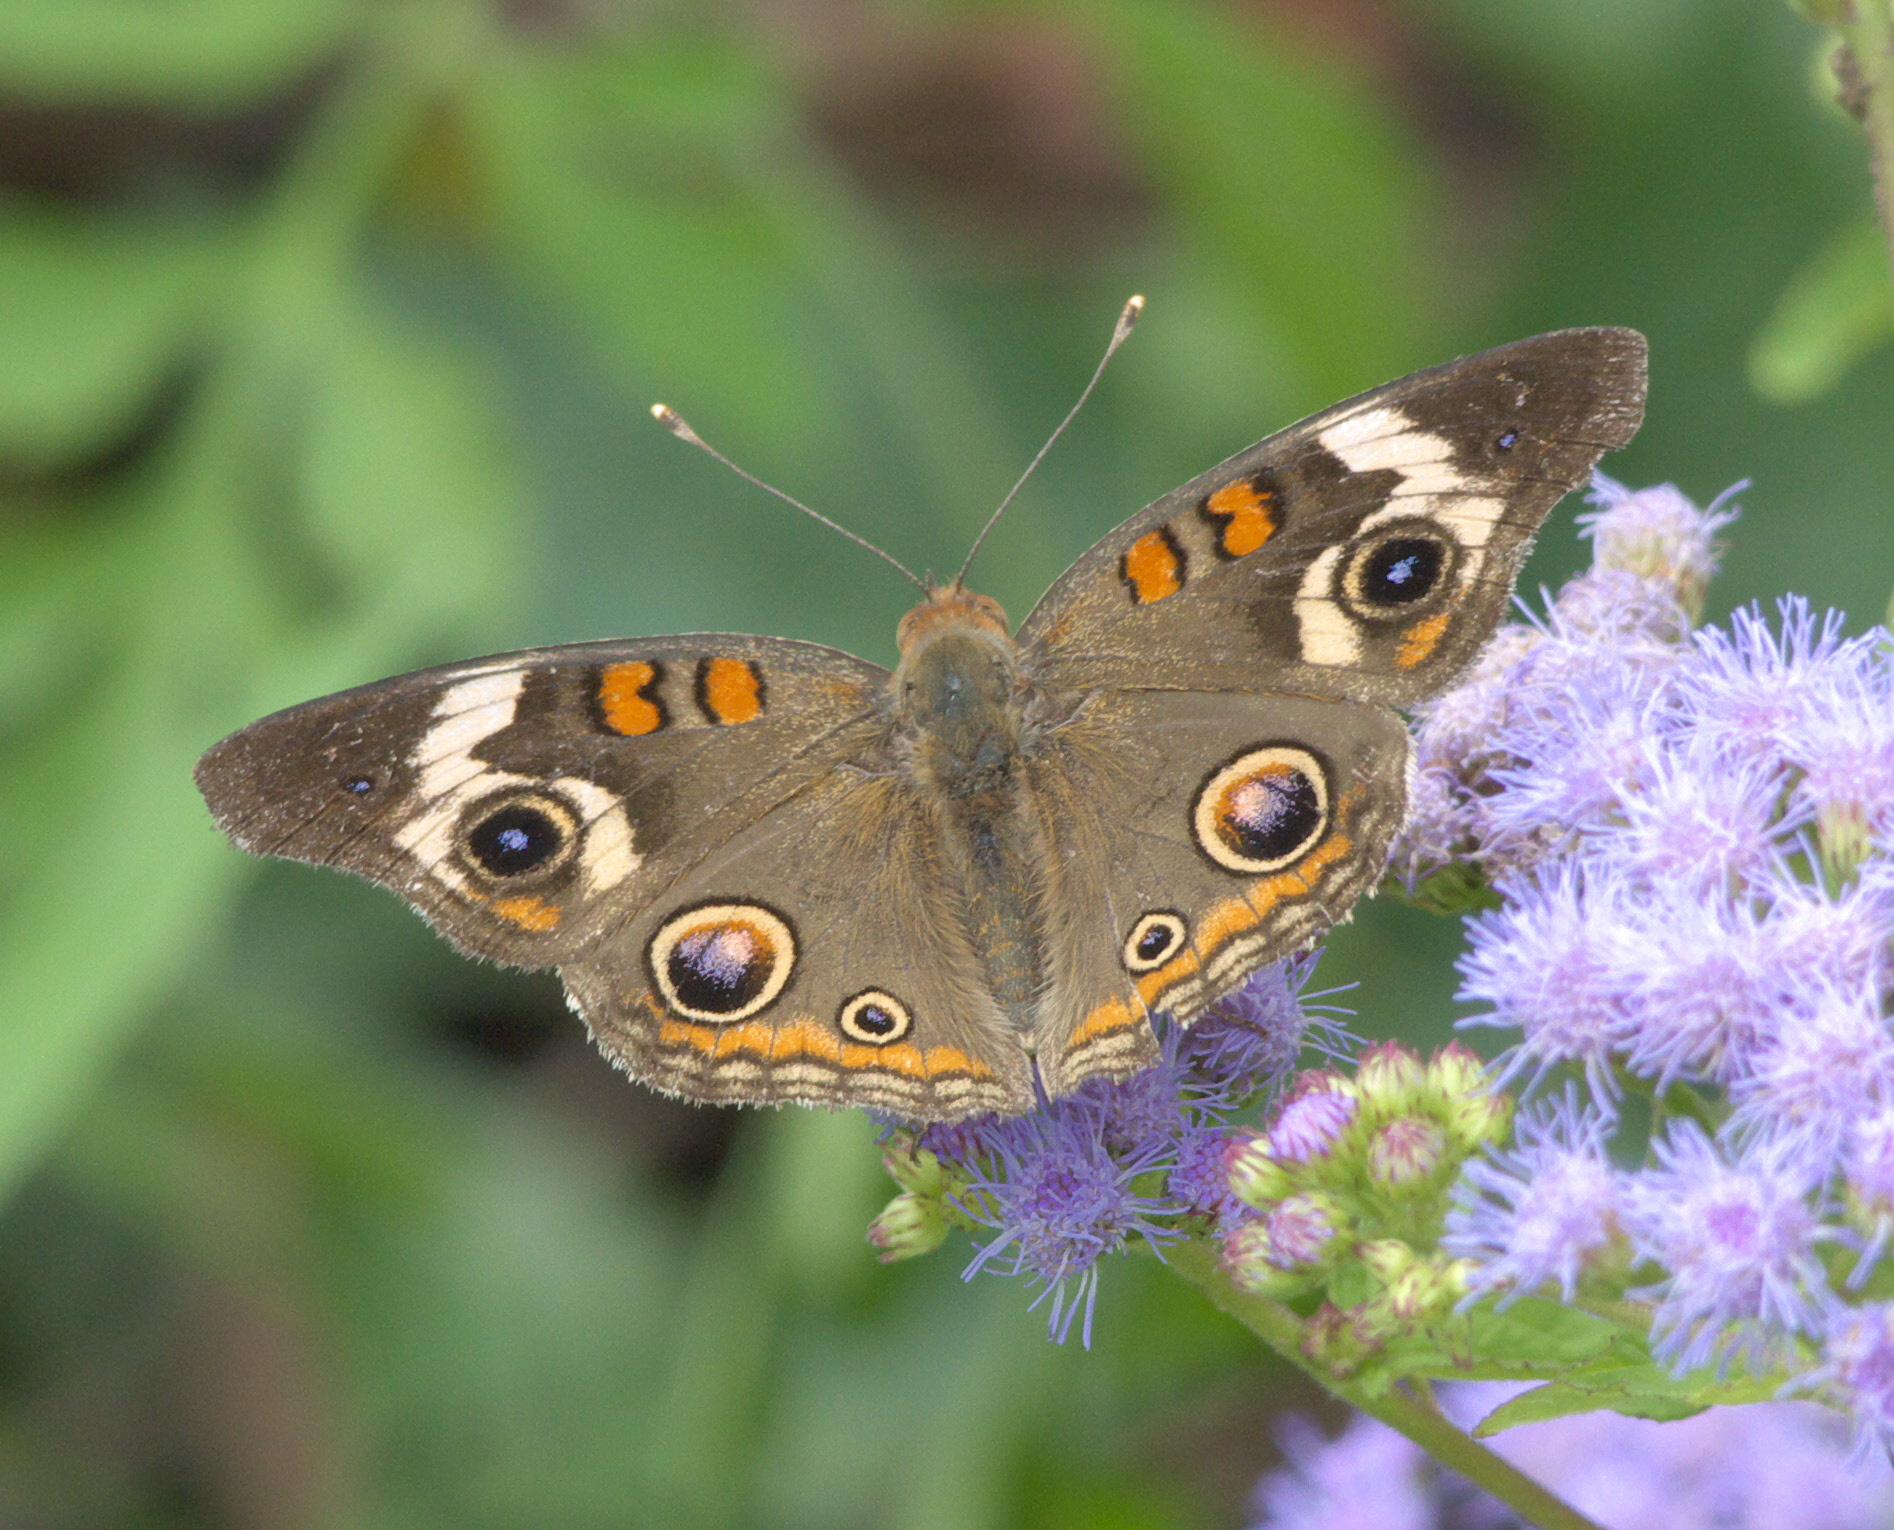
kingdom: Animalia
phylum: Arthropoda
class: Insecta
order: Lepidoptera
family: Nymphalidae
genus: Junonia
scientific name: Junonia coenia
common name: Common buckeye
